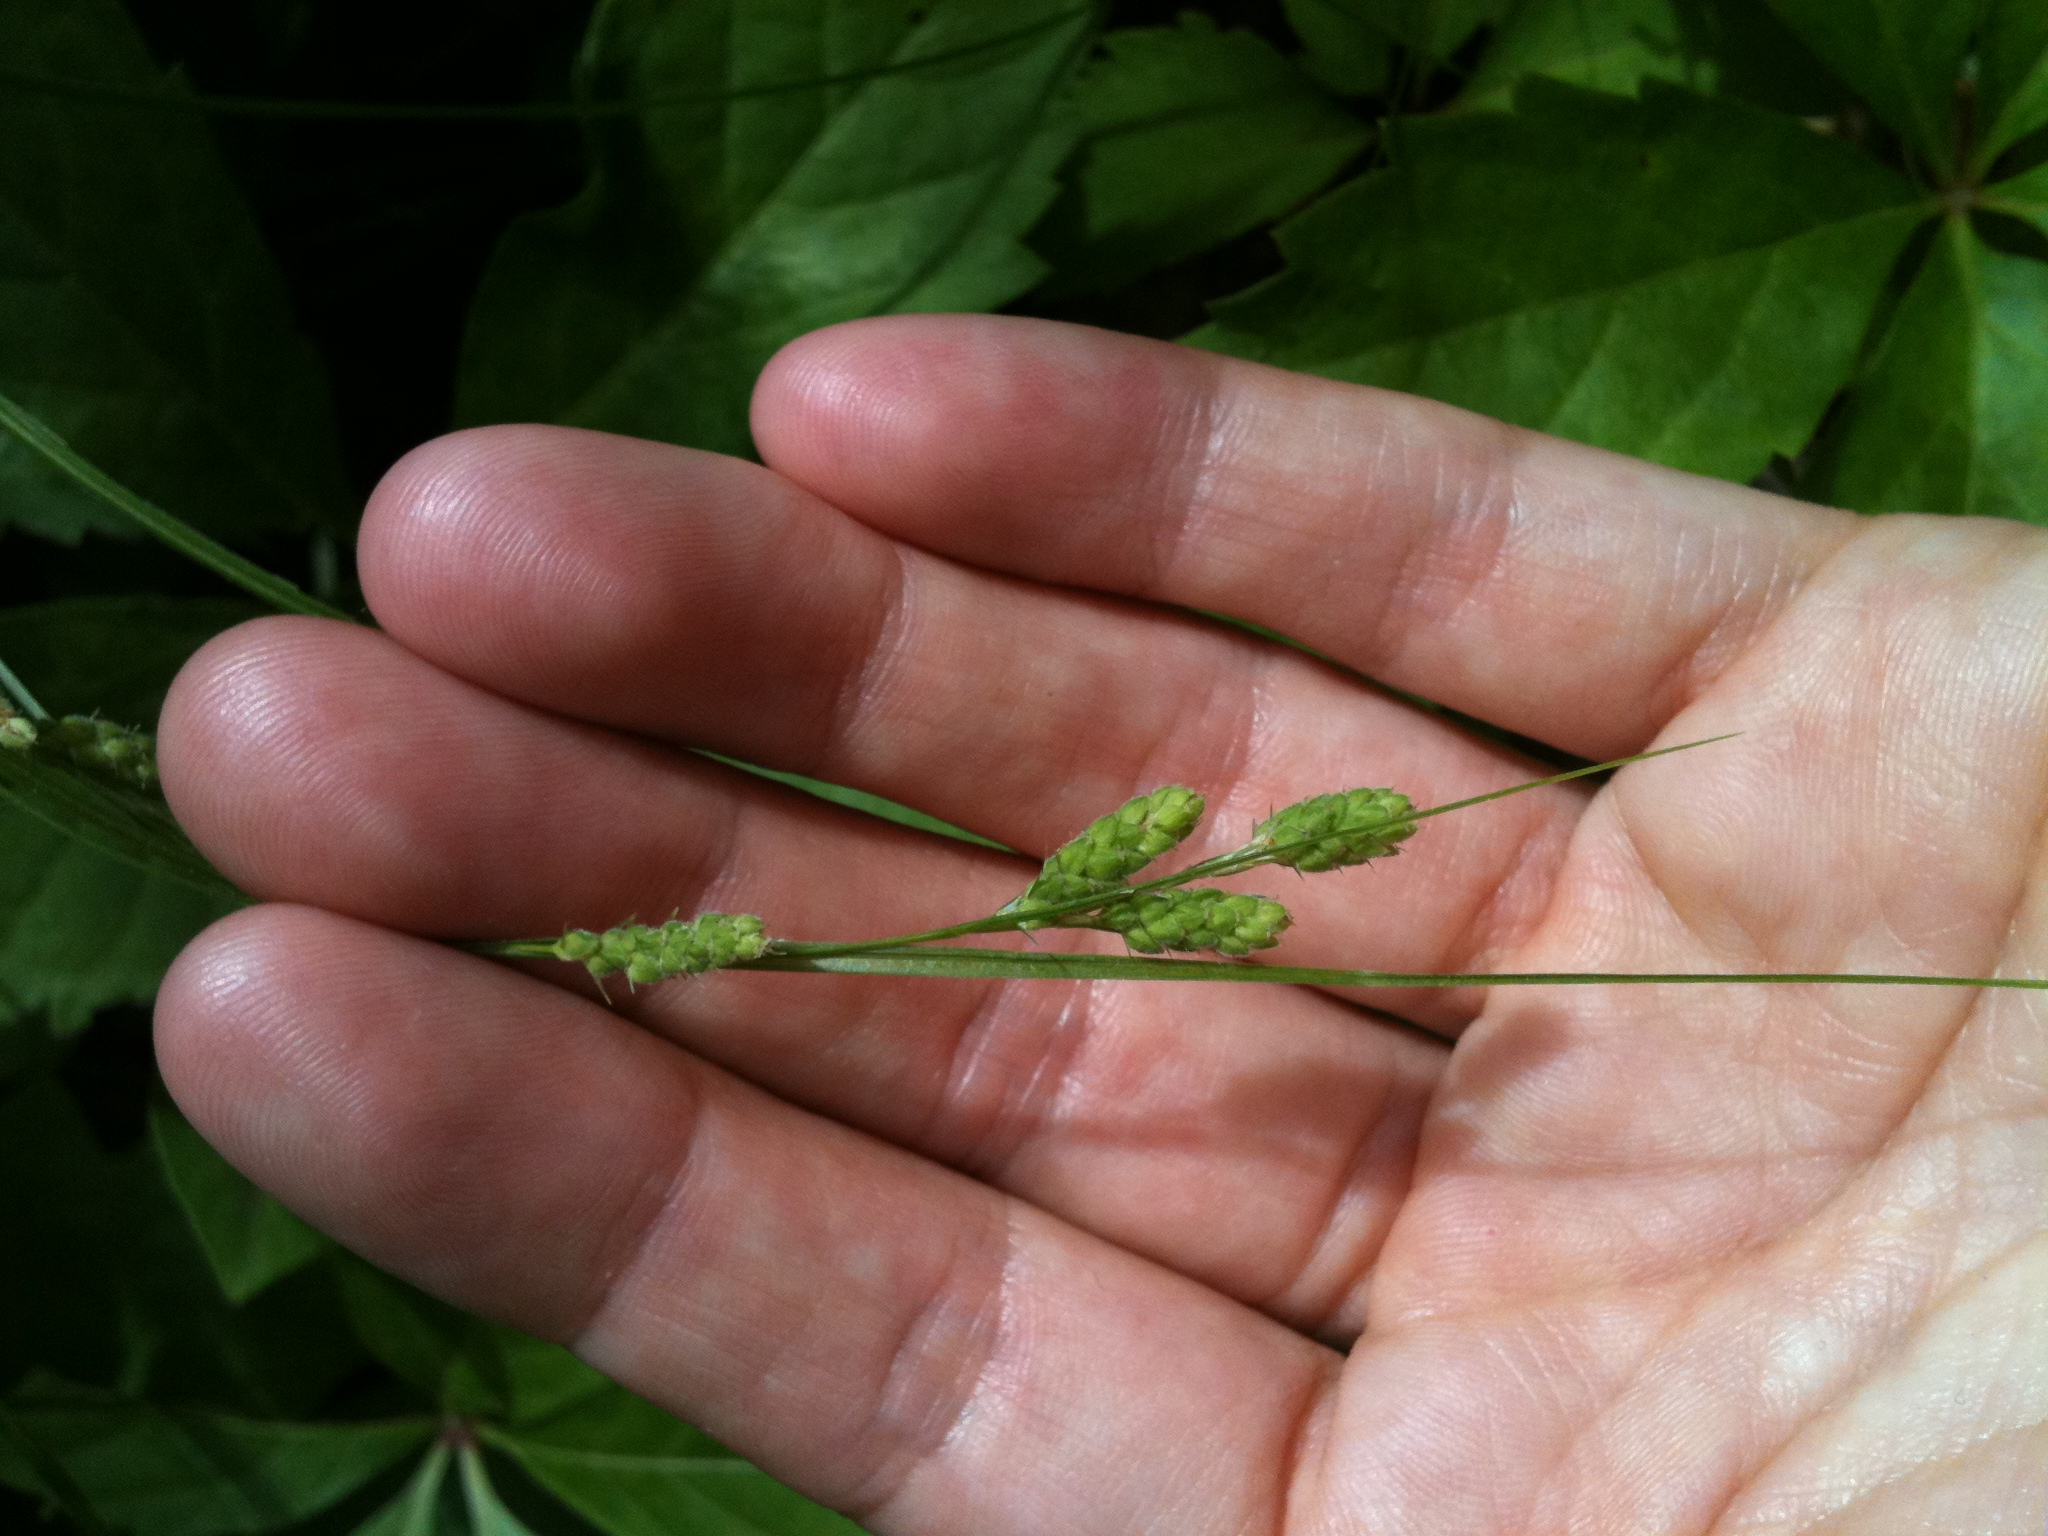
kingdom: Plantae
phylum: Tracheophyta
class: Liliopsida
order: Poales
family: Cyperaceae
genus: Carex
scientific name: Carex swanii
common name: Downy green sedge
